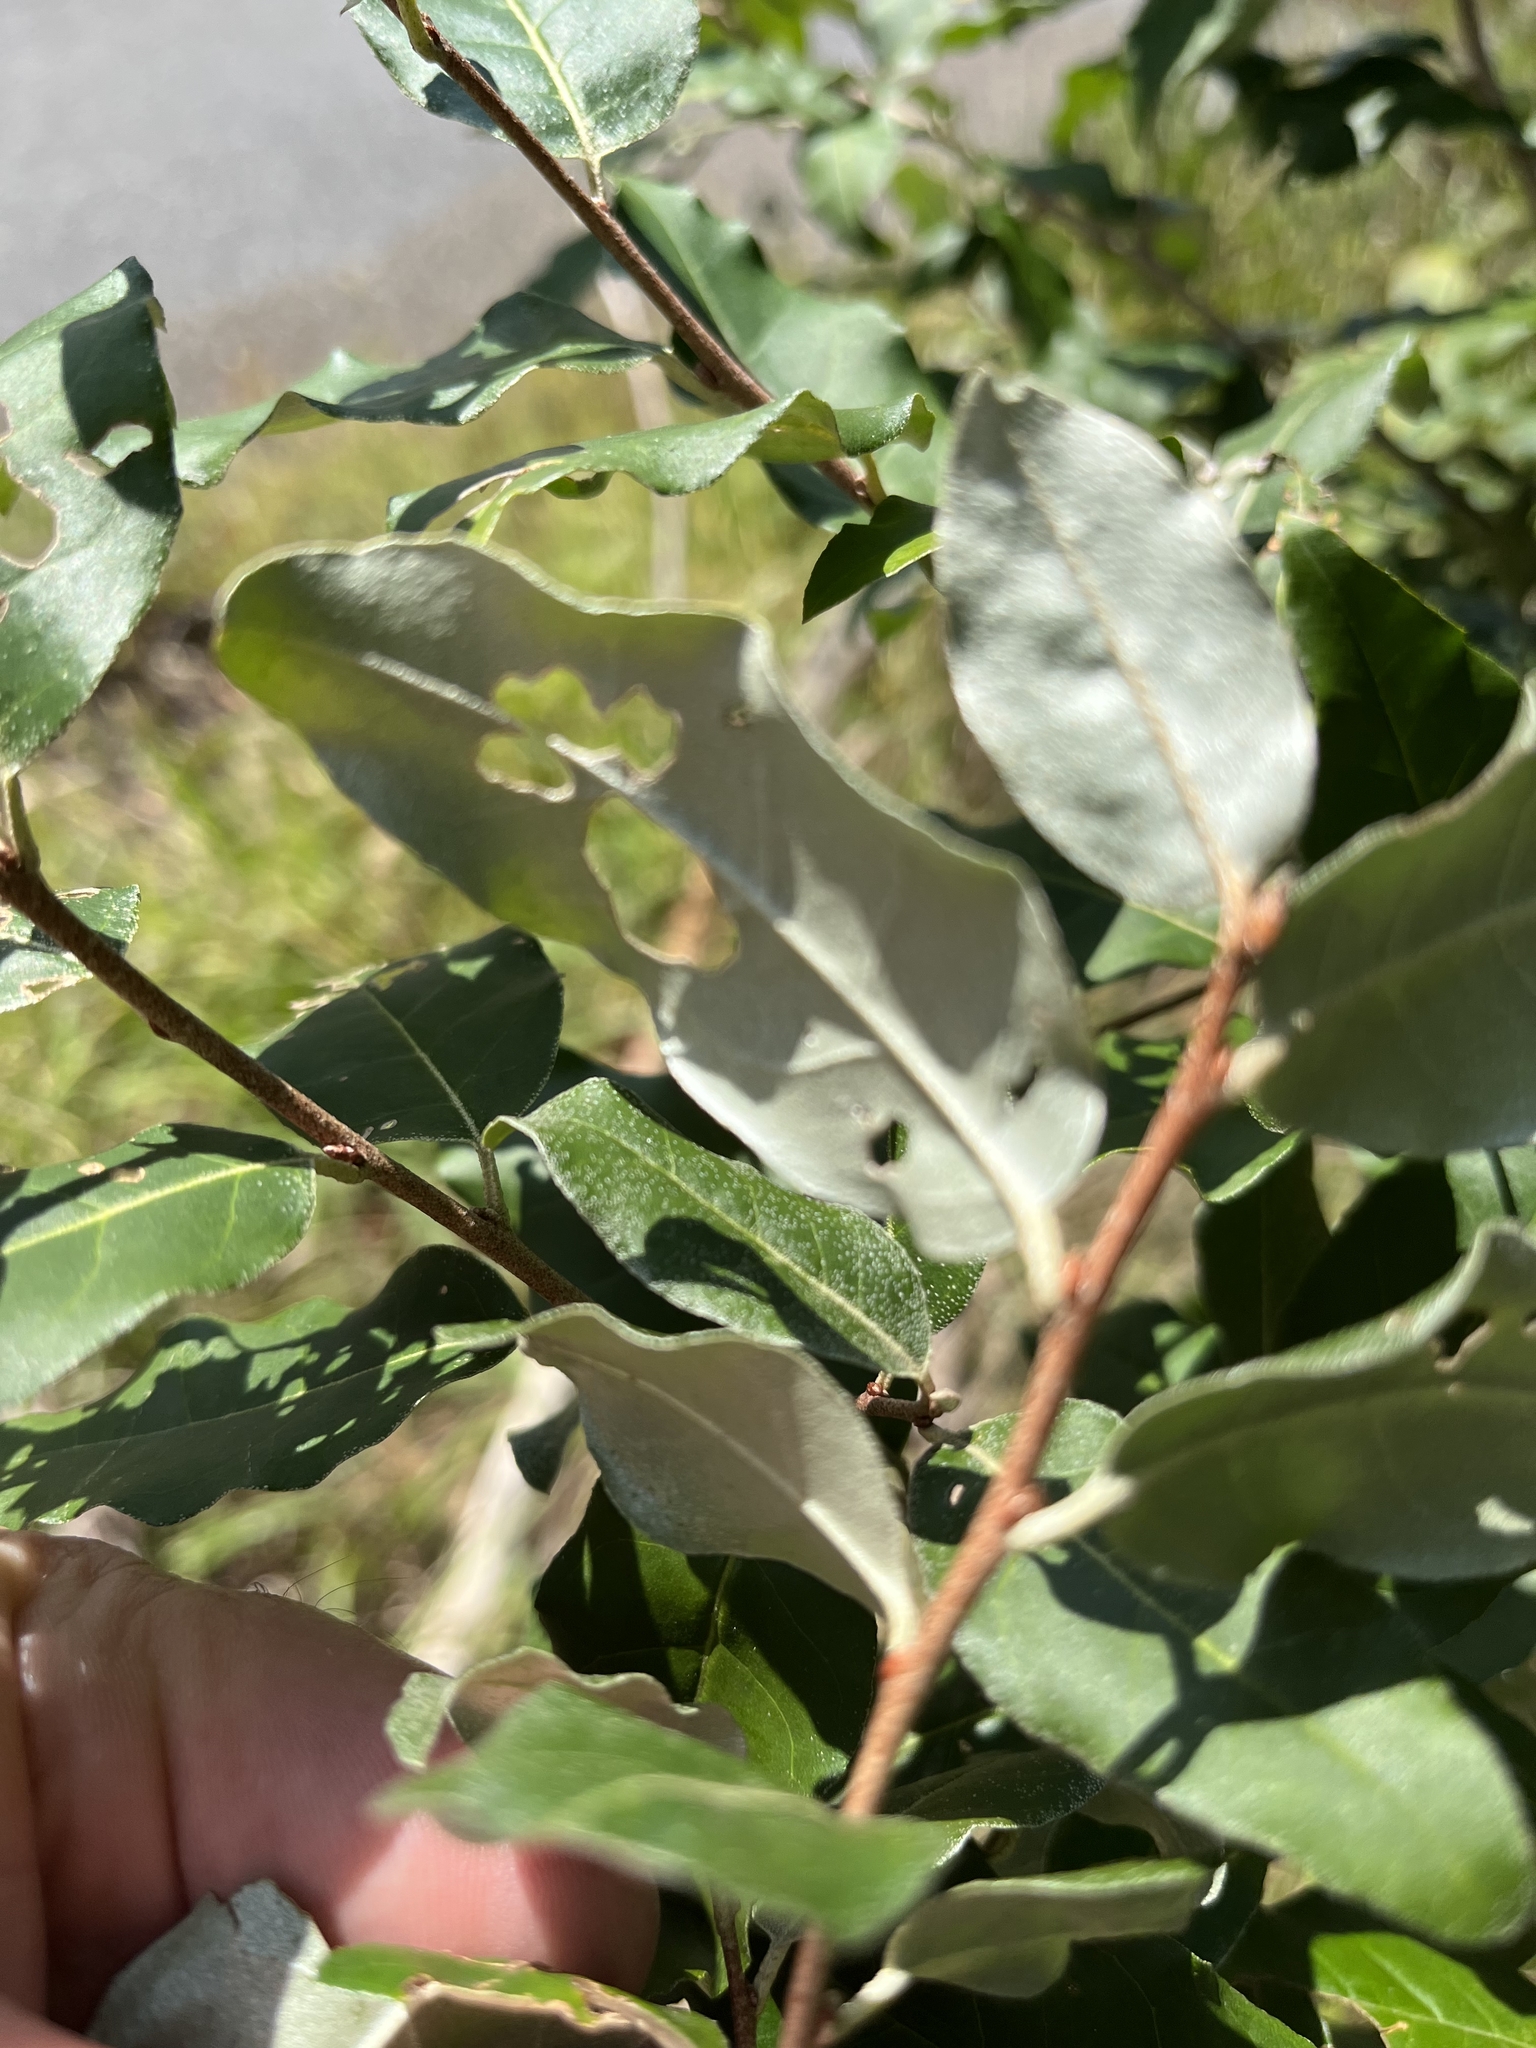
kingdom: Plantae
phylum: Tracheophyta
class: Magnoliopsida
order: Rosales
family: Elaeagnaceae
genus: Elaeagnus
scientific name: Elaeagnus umbellata
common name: Autumn olive
